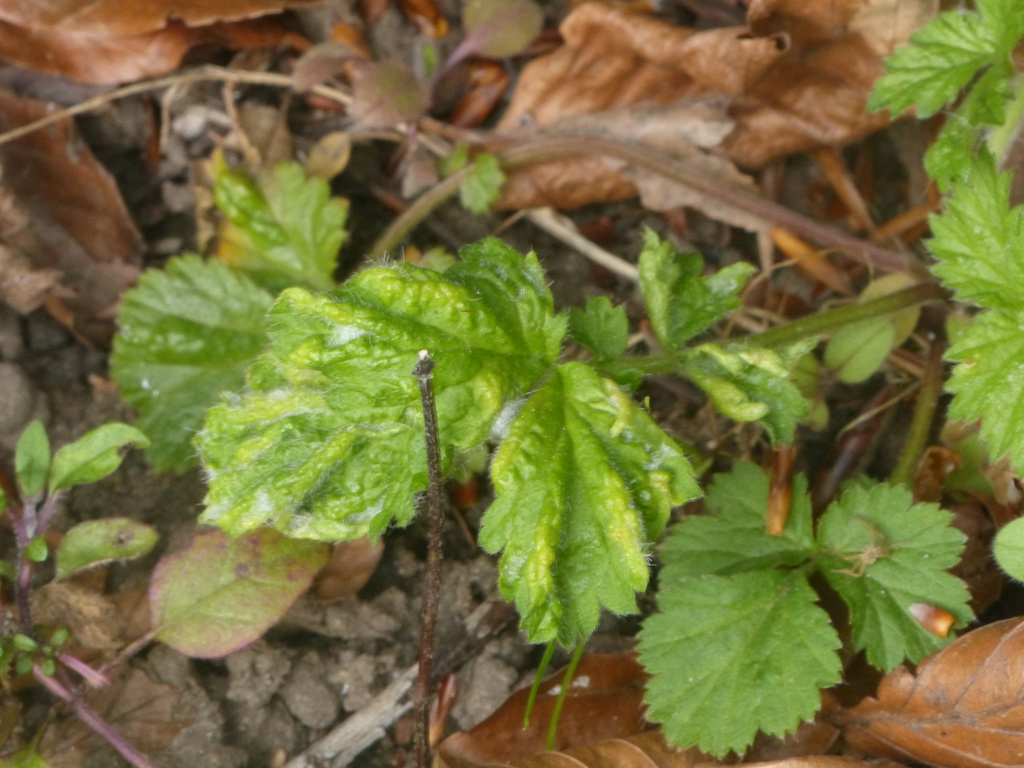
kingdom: Animalia
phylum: Arthropoda
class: Arachnida
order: Trombidiformes
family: Eriophyidae
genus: Cecidophyes
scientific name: Cecidophyes nudus
